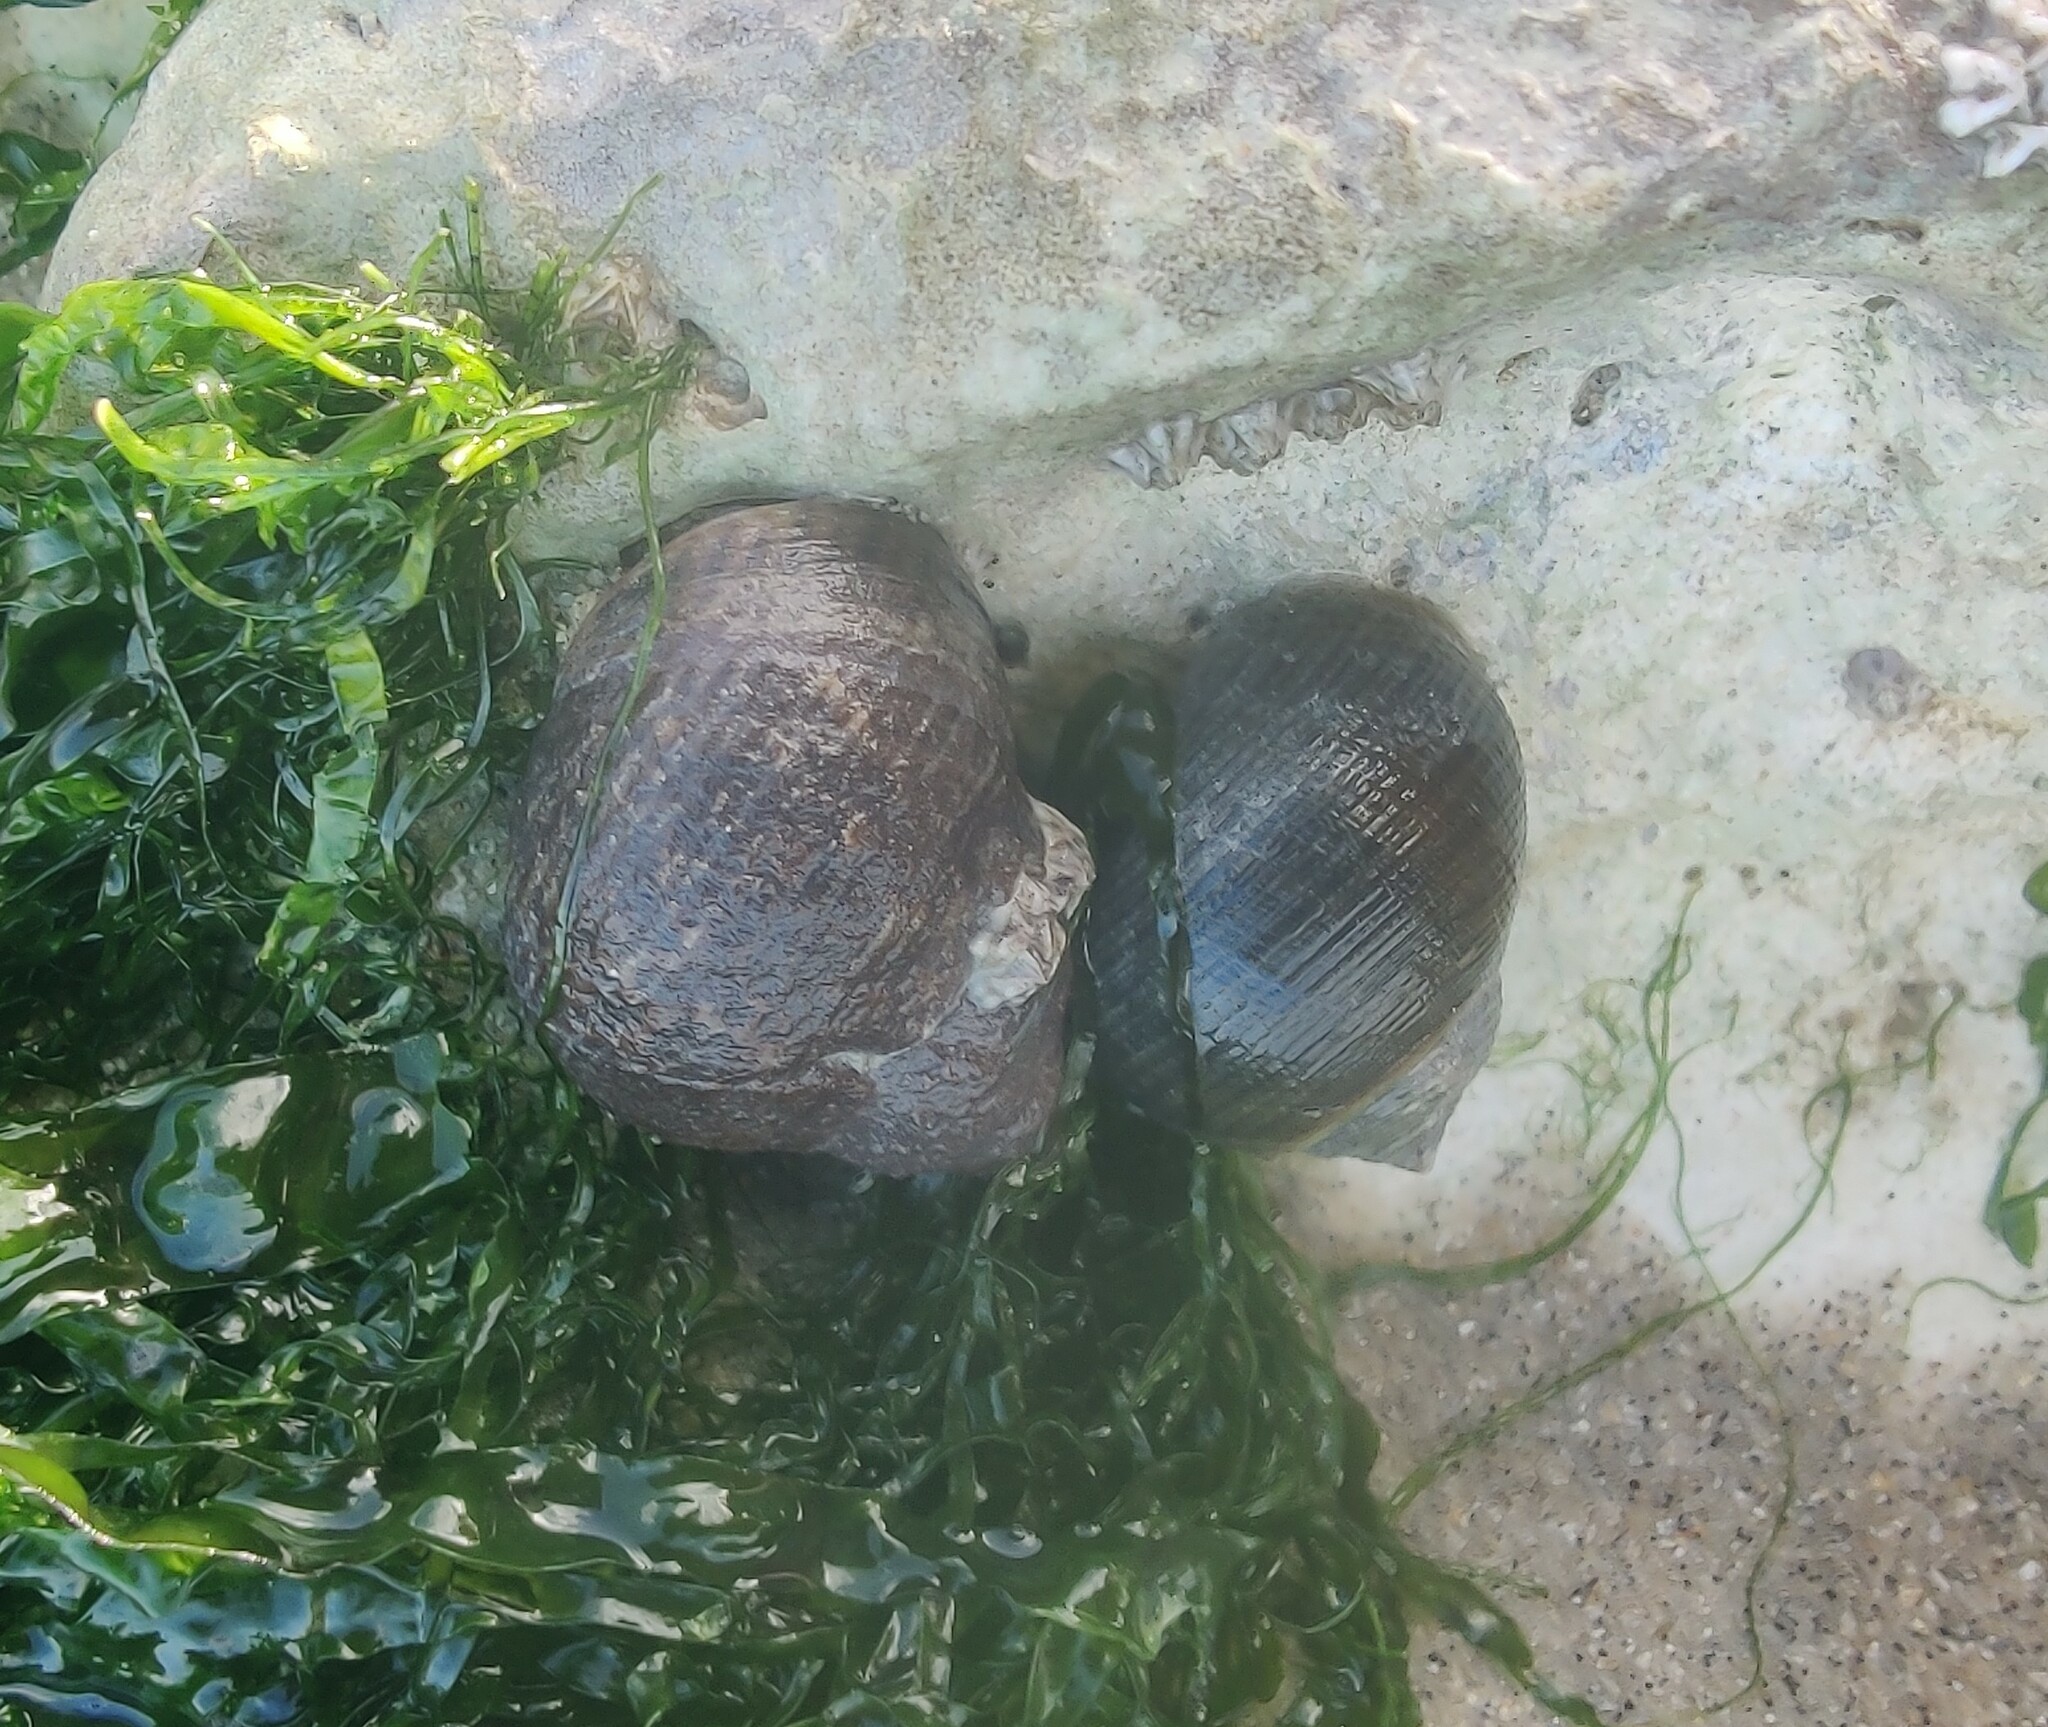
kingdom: Animalia
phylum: Mollusca
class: Gastropoda
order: Littorinimorpha
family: Littorinidae
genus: Littorina
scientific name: Littorina littorea
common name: Common periwinkle
